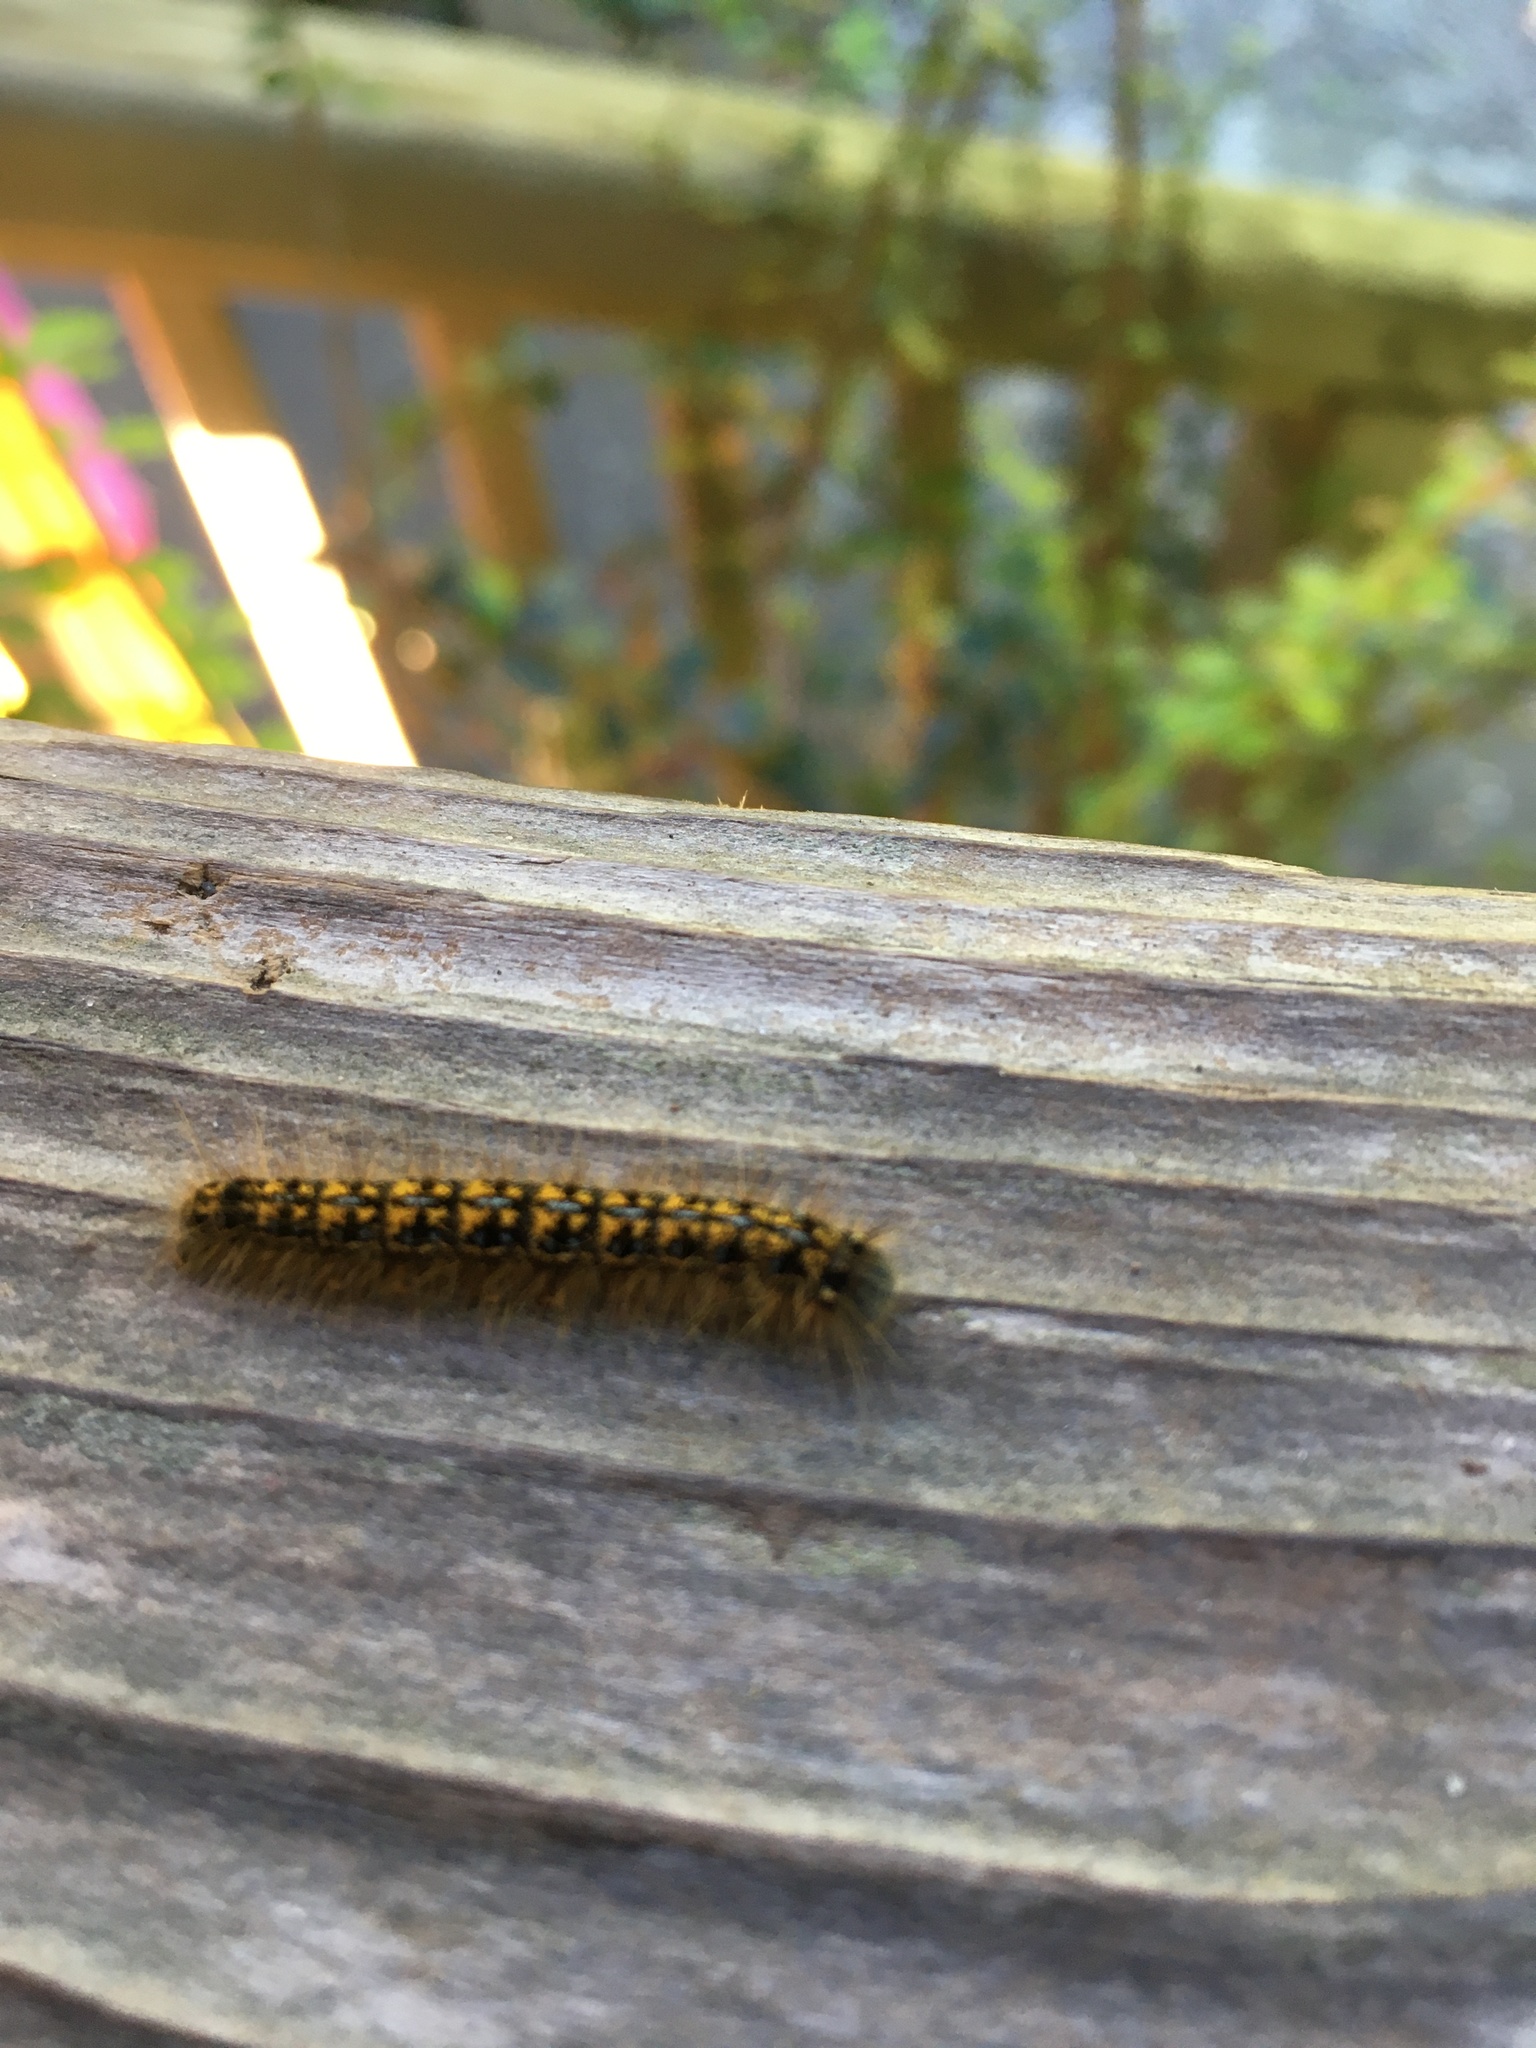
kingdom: Animalia
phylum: Arthropoda
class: Insecta
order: Lepidoptera
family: Lasiocampidae
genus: Malacosoma
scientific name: Malacosoma californica
